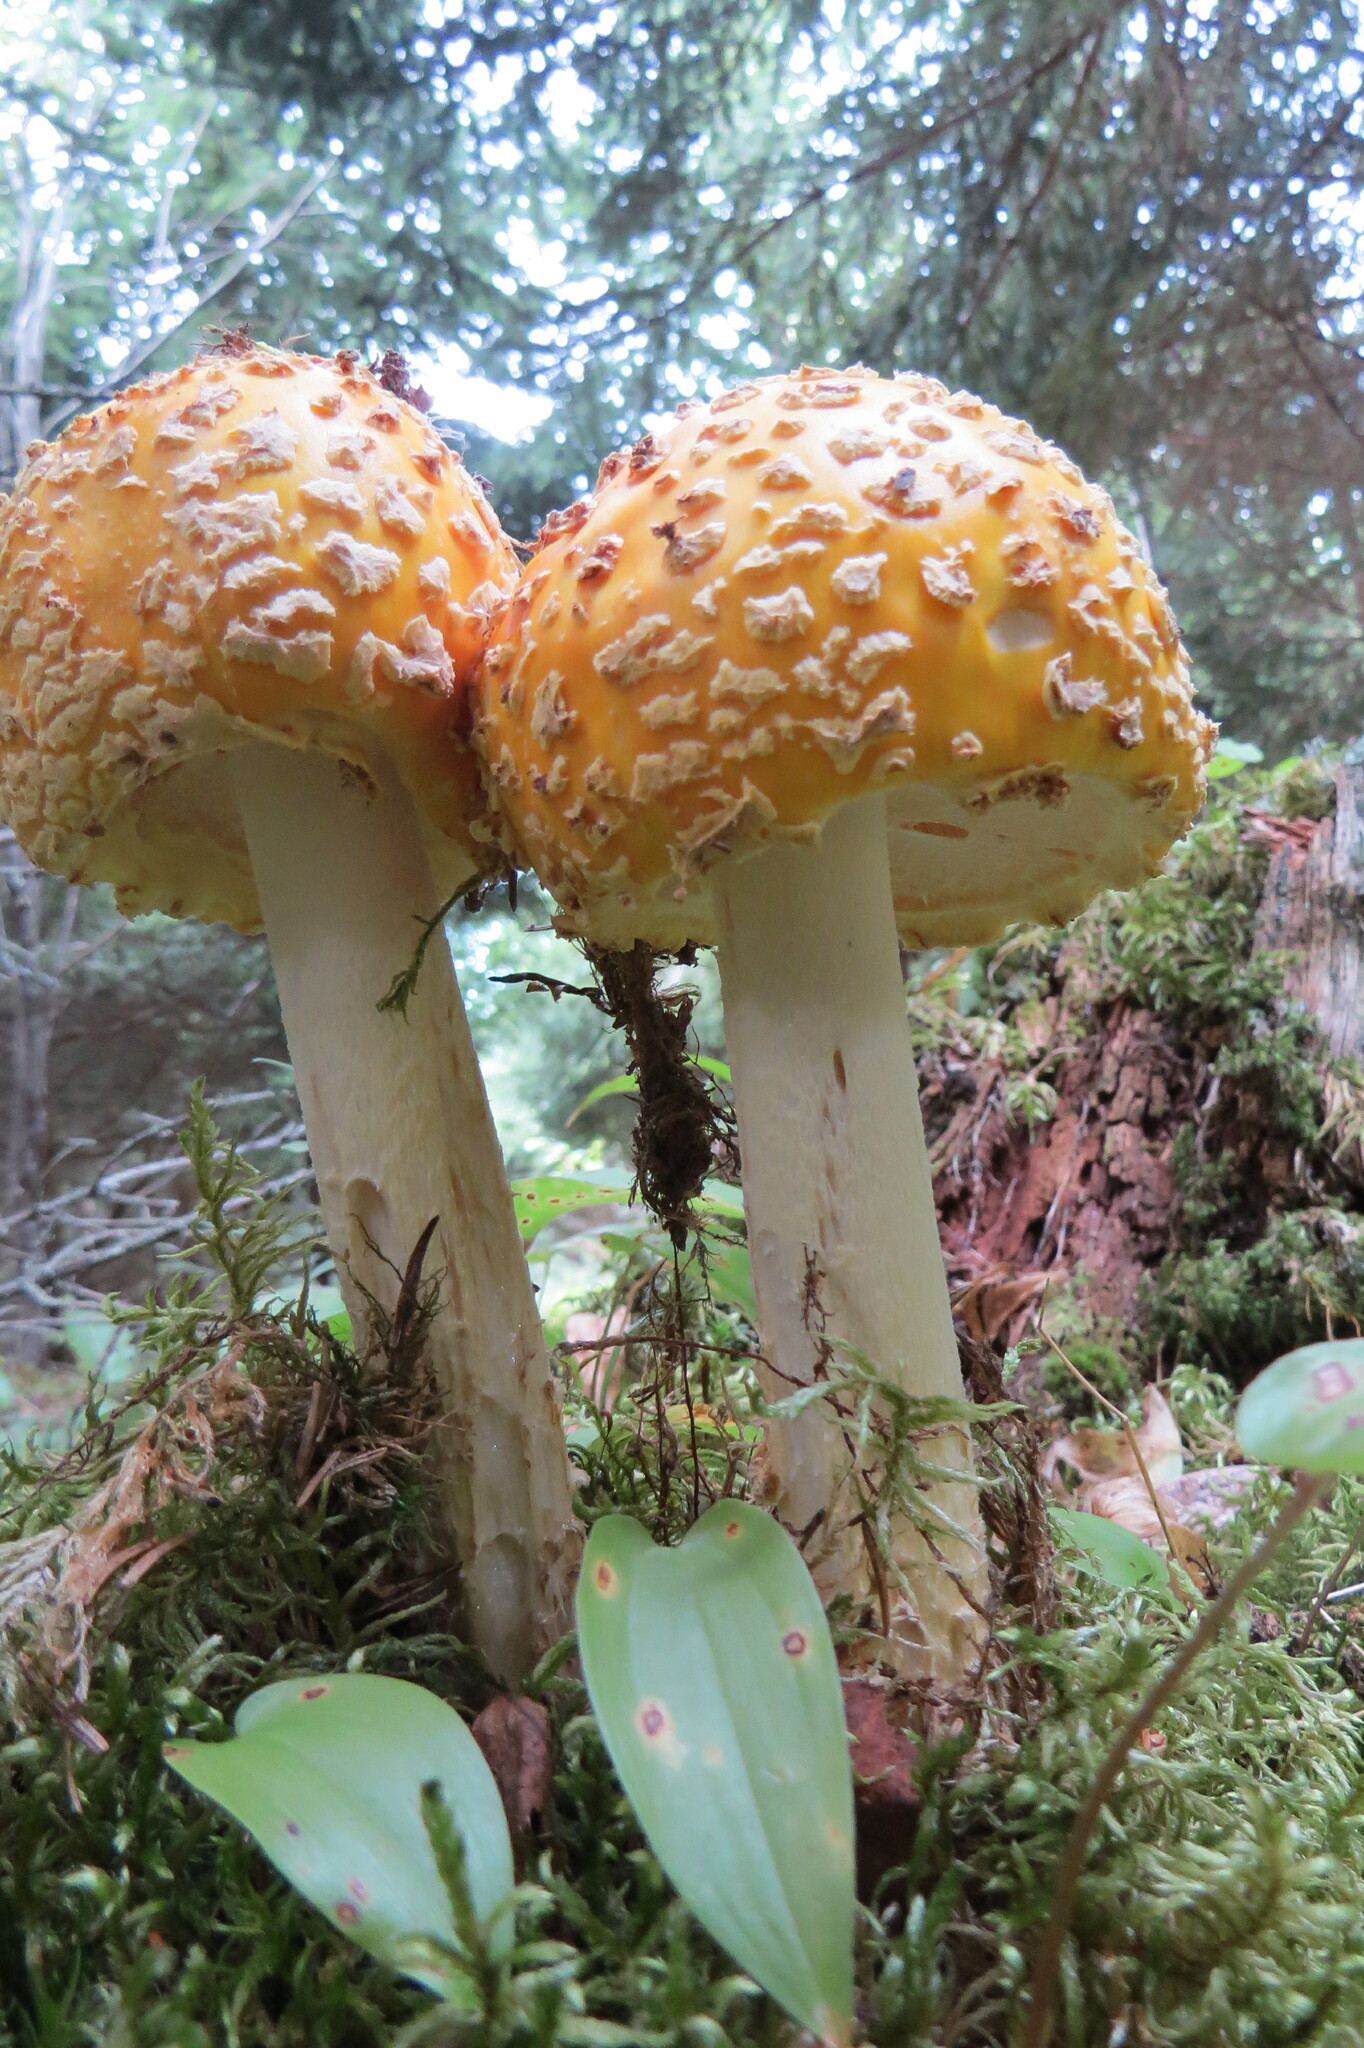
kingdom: Fungi
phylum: Basidiomycota
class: Agaricomycetes
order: Agaricales
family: Amanitaceae
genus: Amanita
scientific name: Amanita muscaria
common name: Fly agaric
